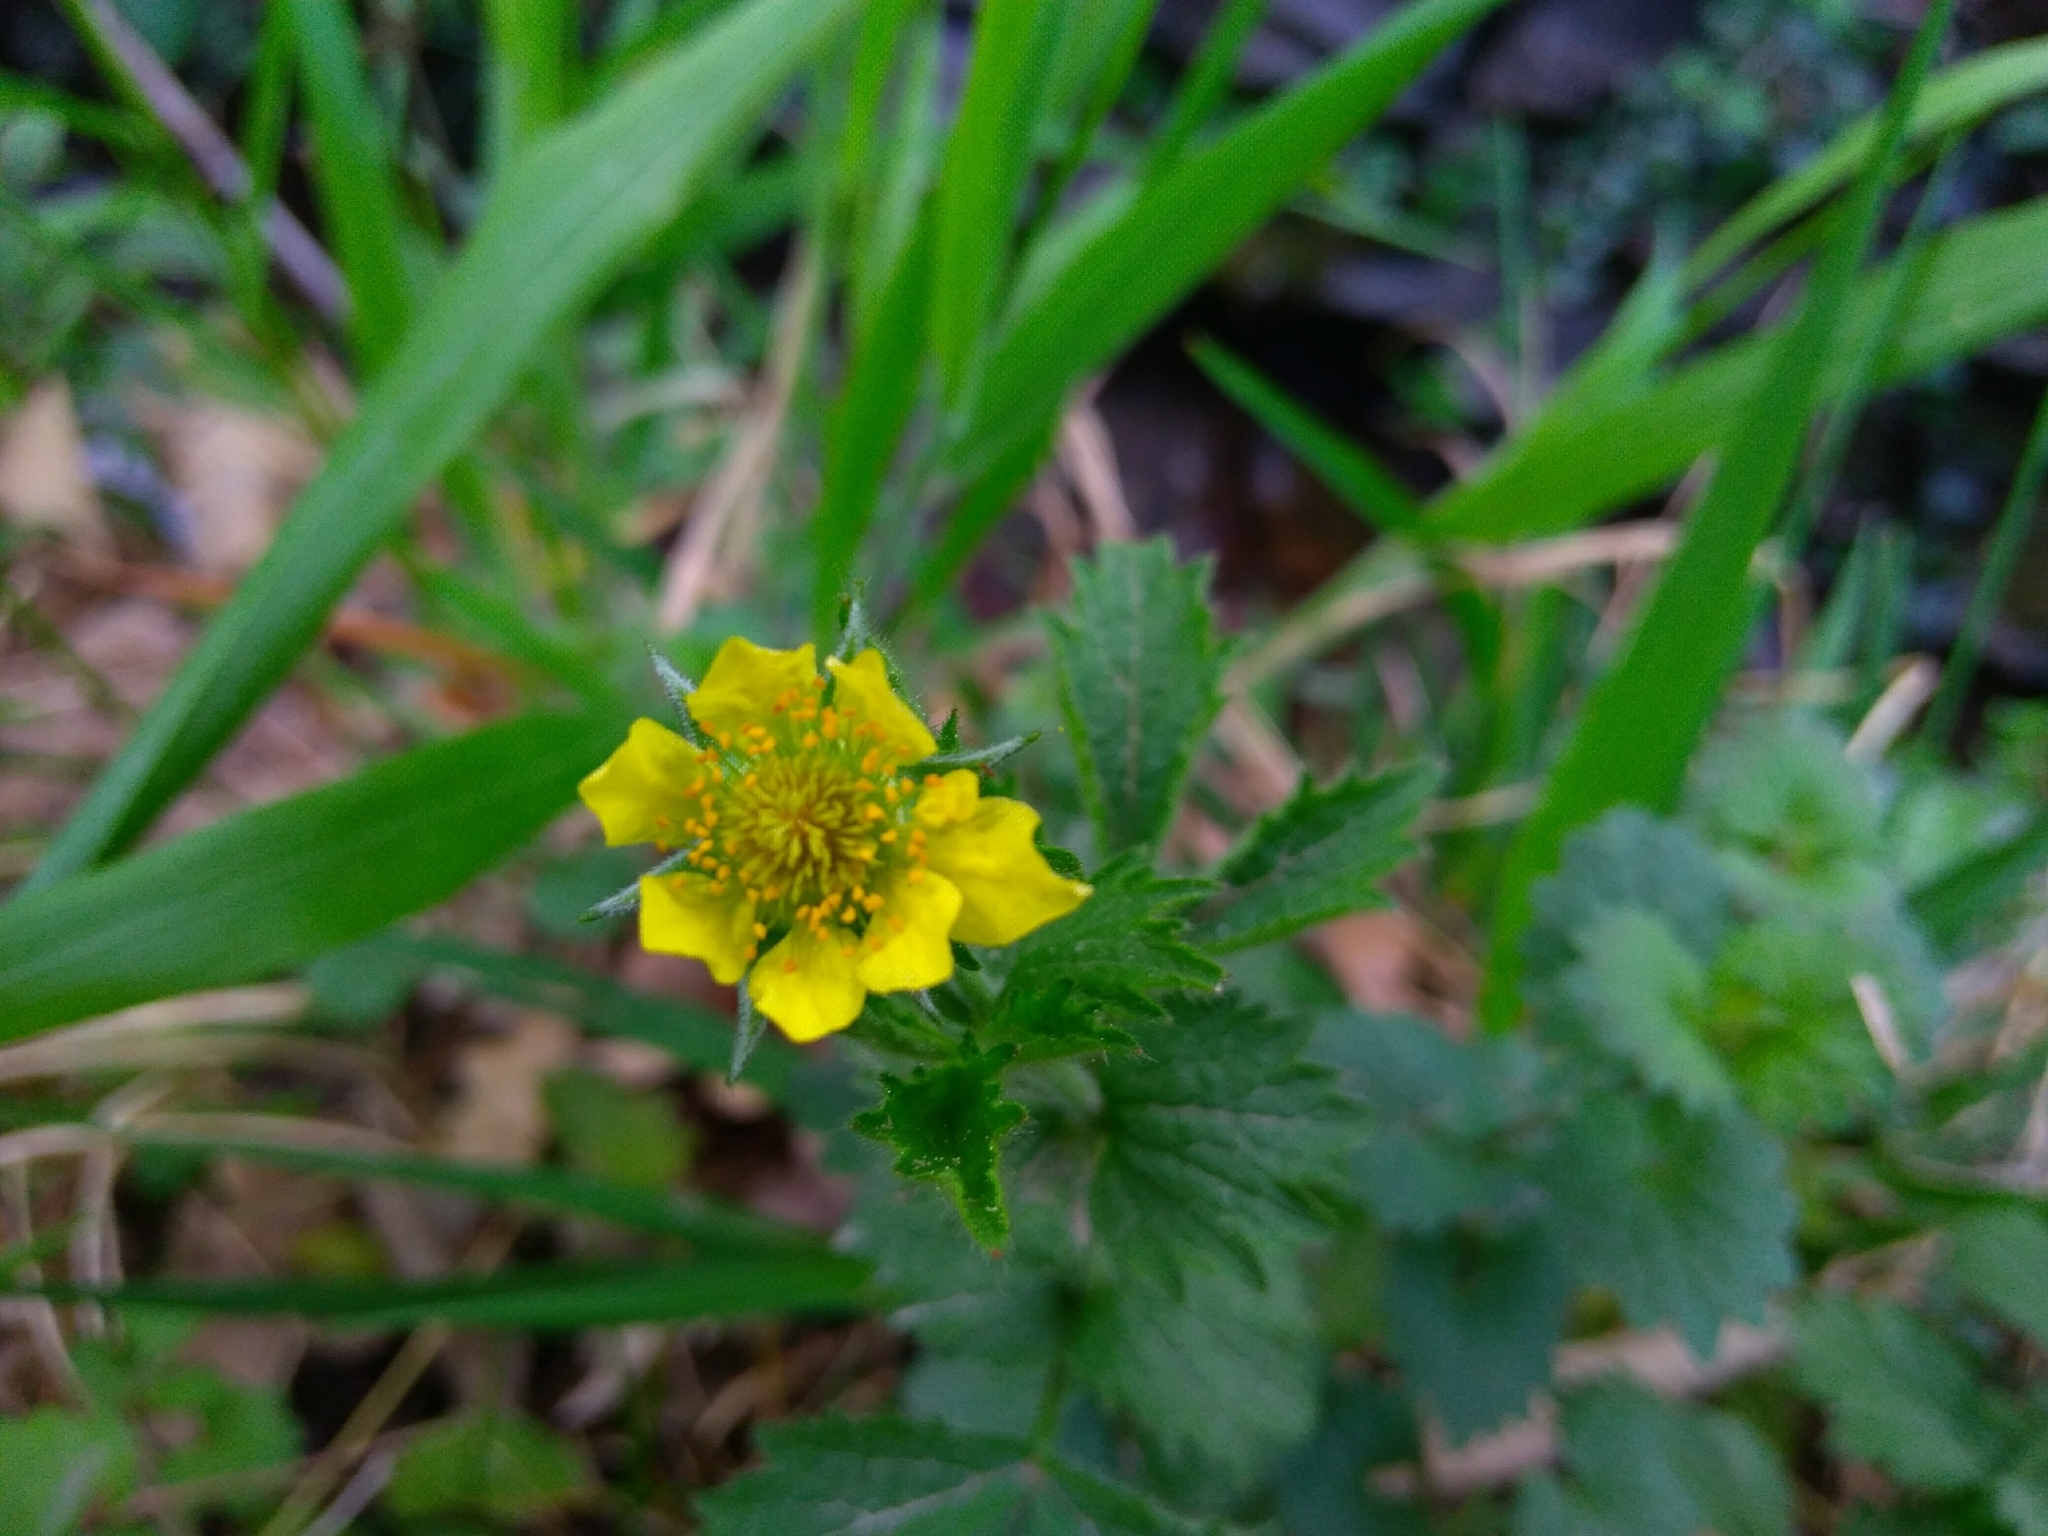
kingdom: Plantae
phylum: Tracheophyta
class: Magnoliopsida
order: Rosales
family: Rosaceae
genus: Geum
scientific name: Geum urbanum
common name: Wood avens
